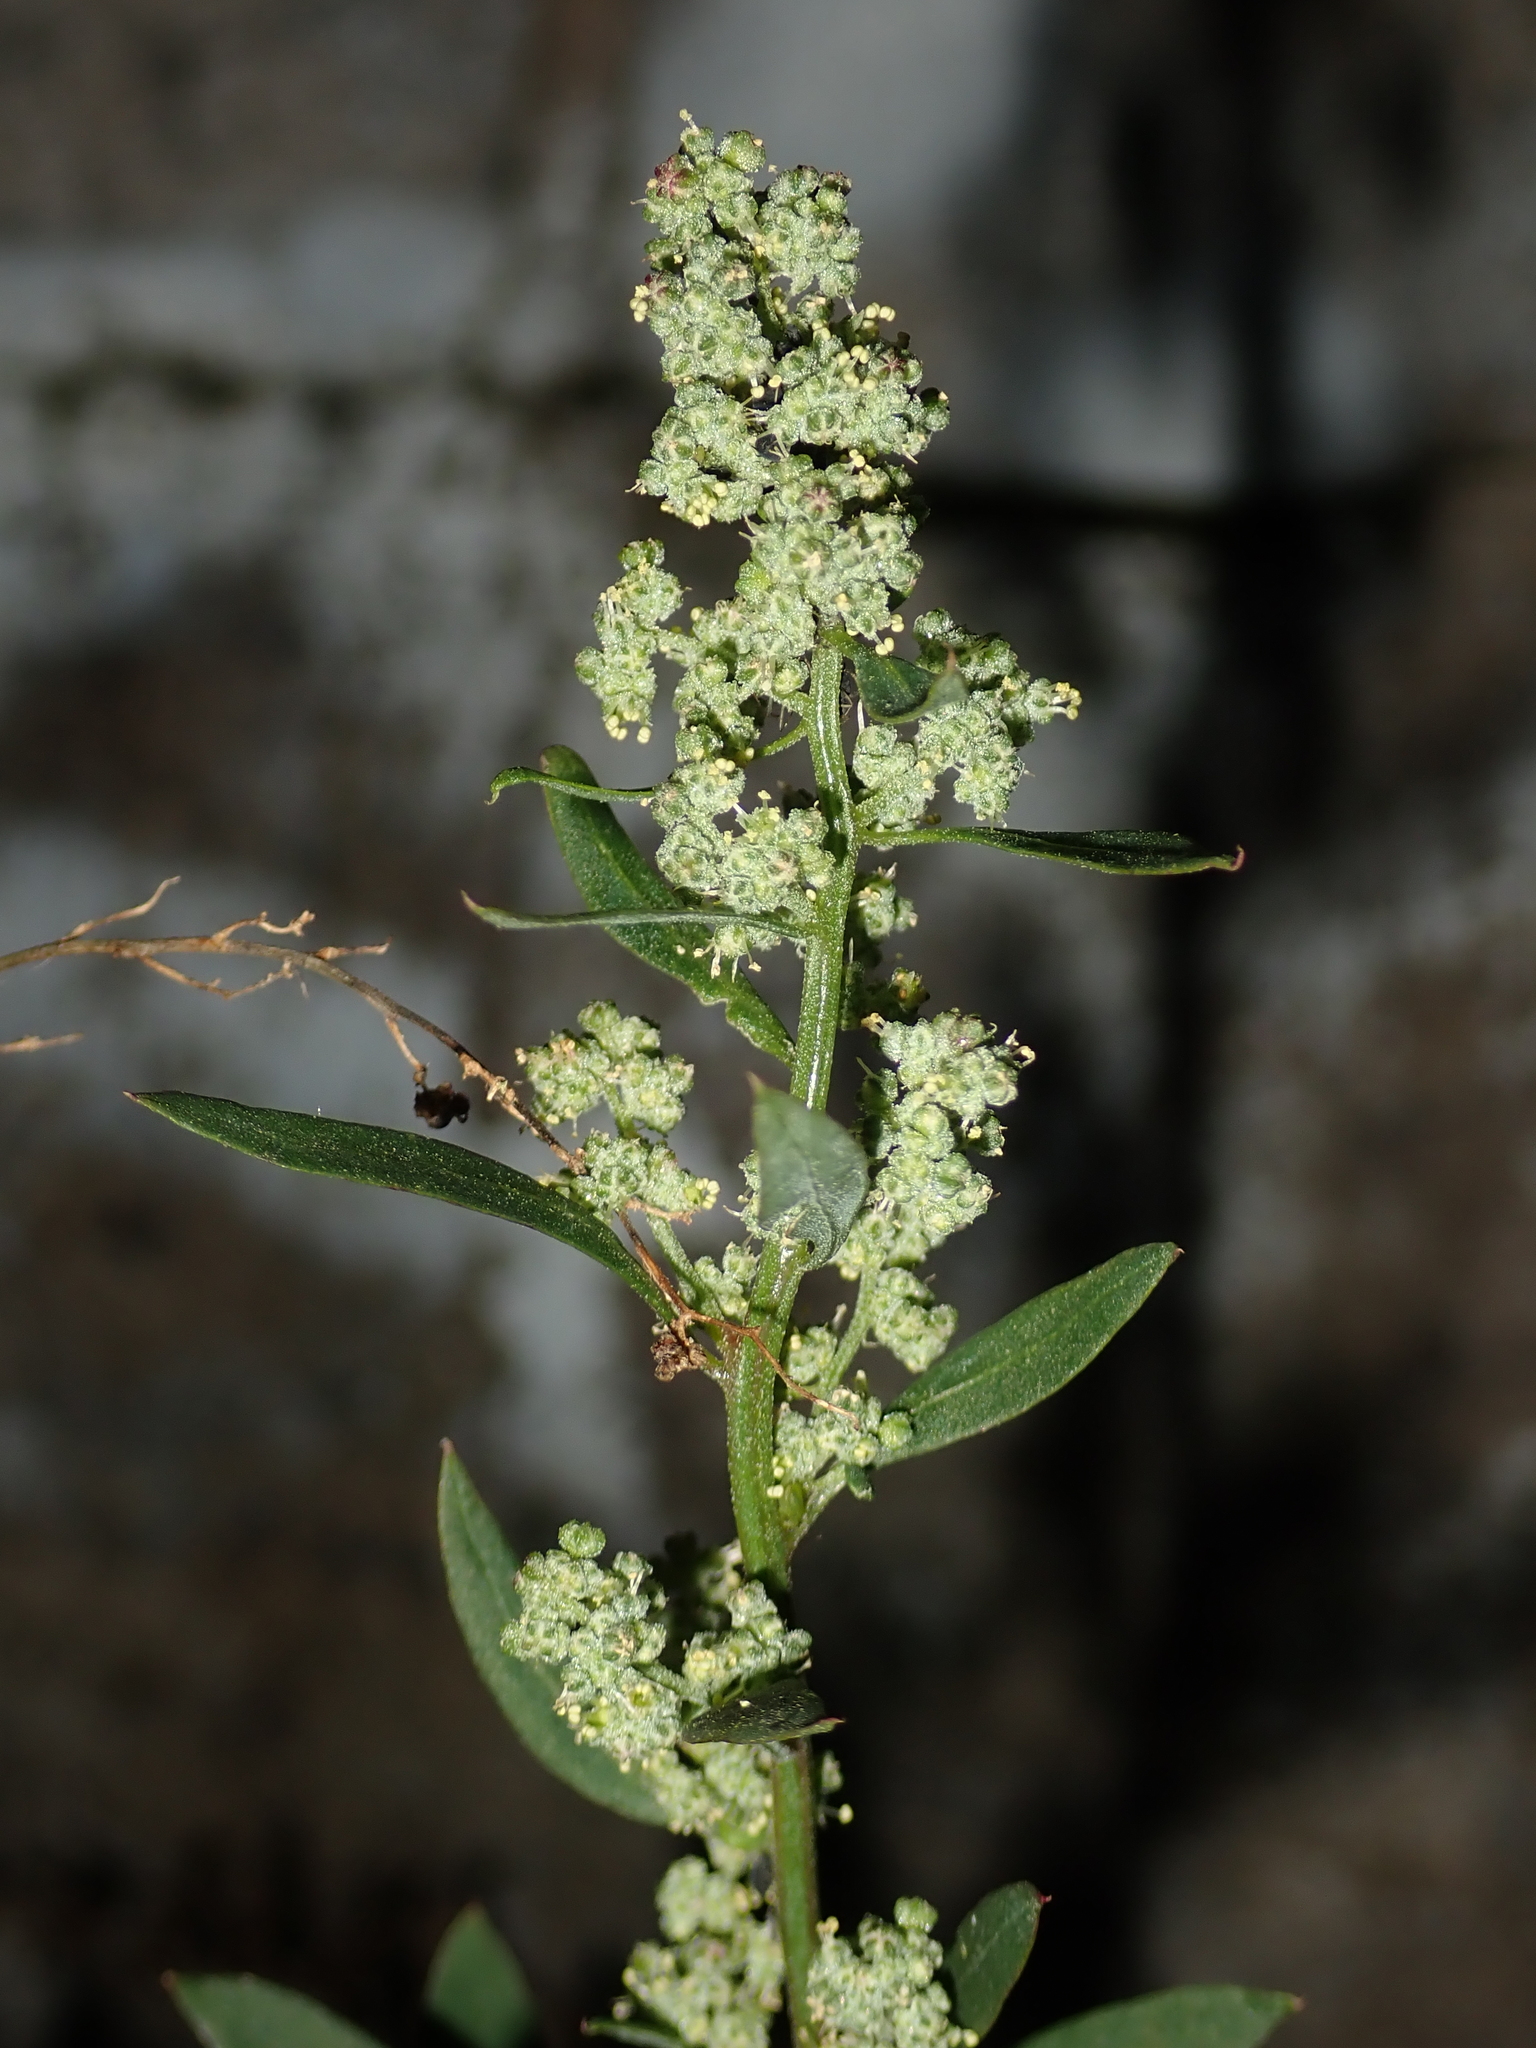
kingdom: Plantae
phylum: Tracheophyta
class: Magnoliopsida
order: Caryophyllales
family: Amaranthaceae
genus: Chenopodium
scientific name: Chenopodium album
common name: Fat-hen
